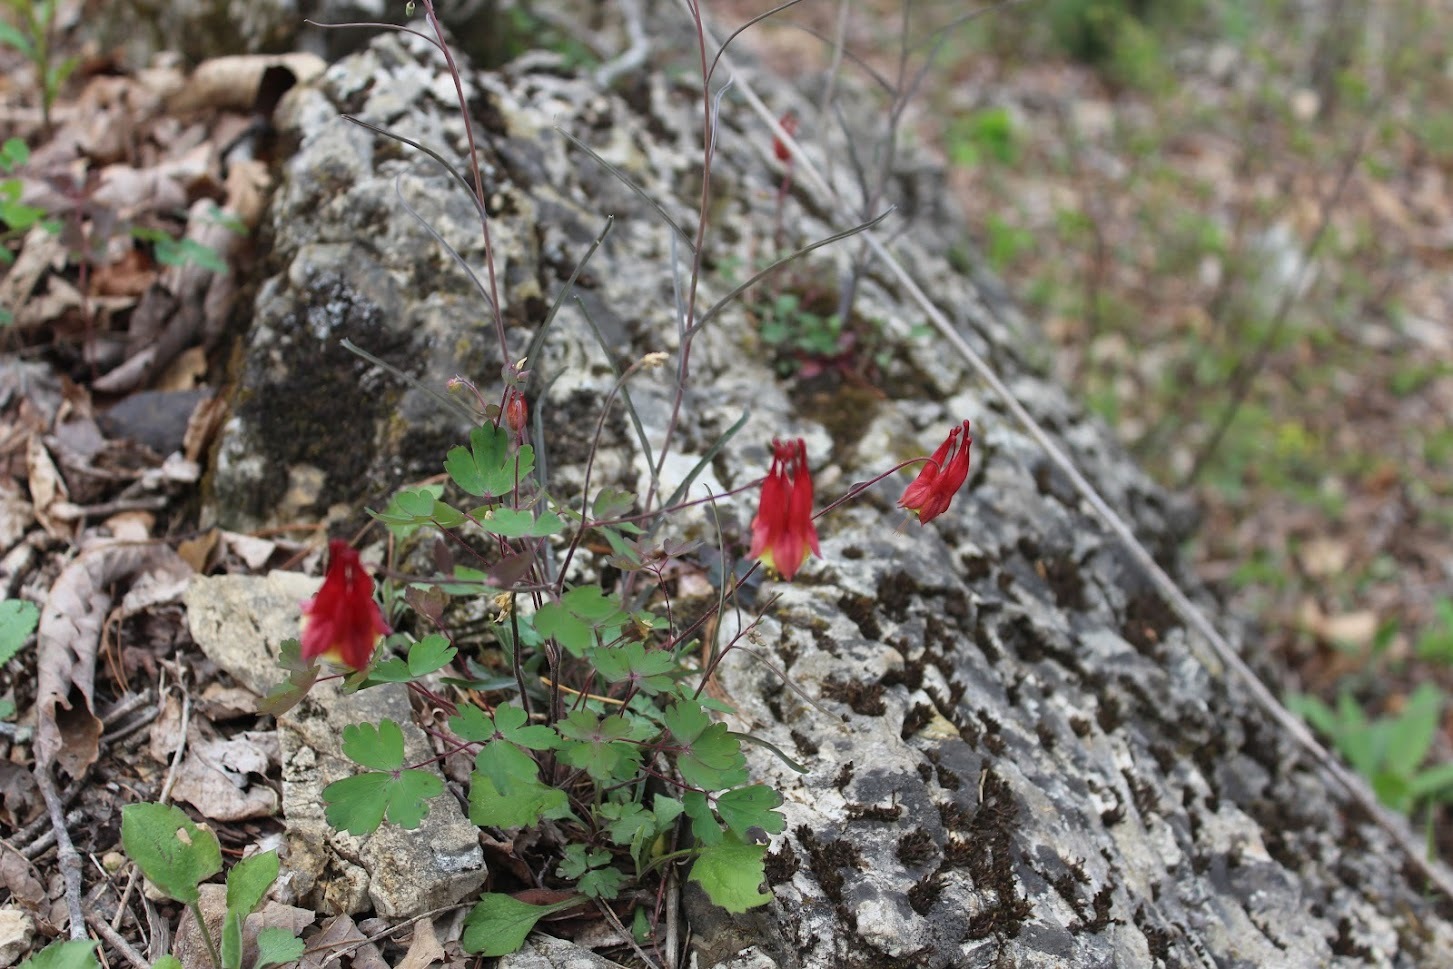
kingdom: Plantae
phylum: Tracheophyta
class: Magnoliopsida
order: Ranunculales
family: Ranunculaceae
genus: Aquilegia
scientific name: Aquilegia canadensis
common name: American columbine
